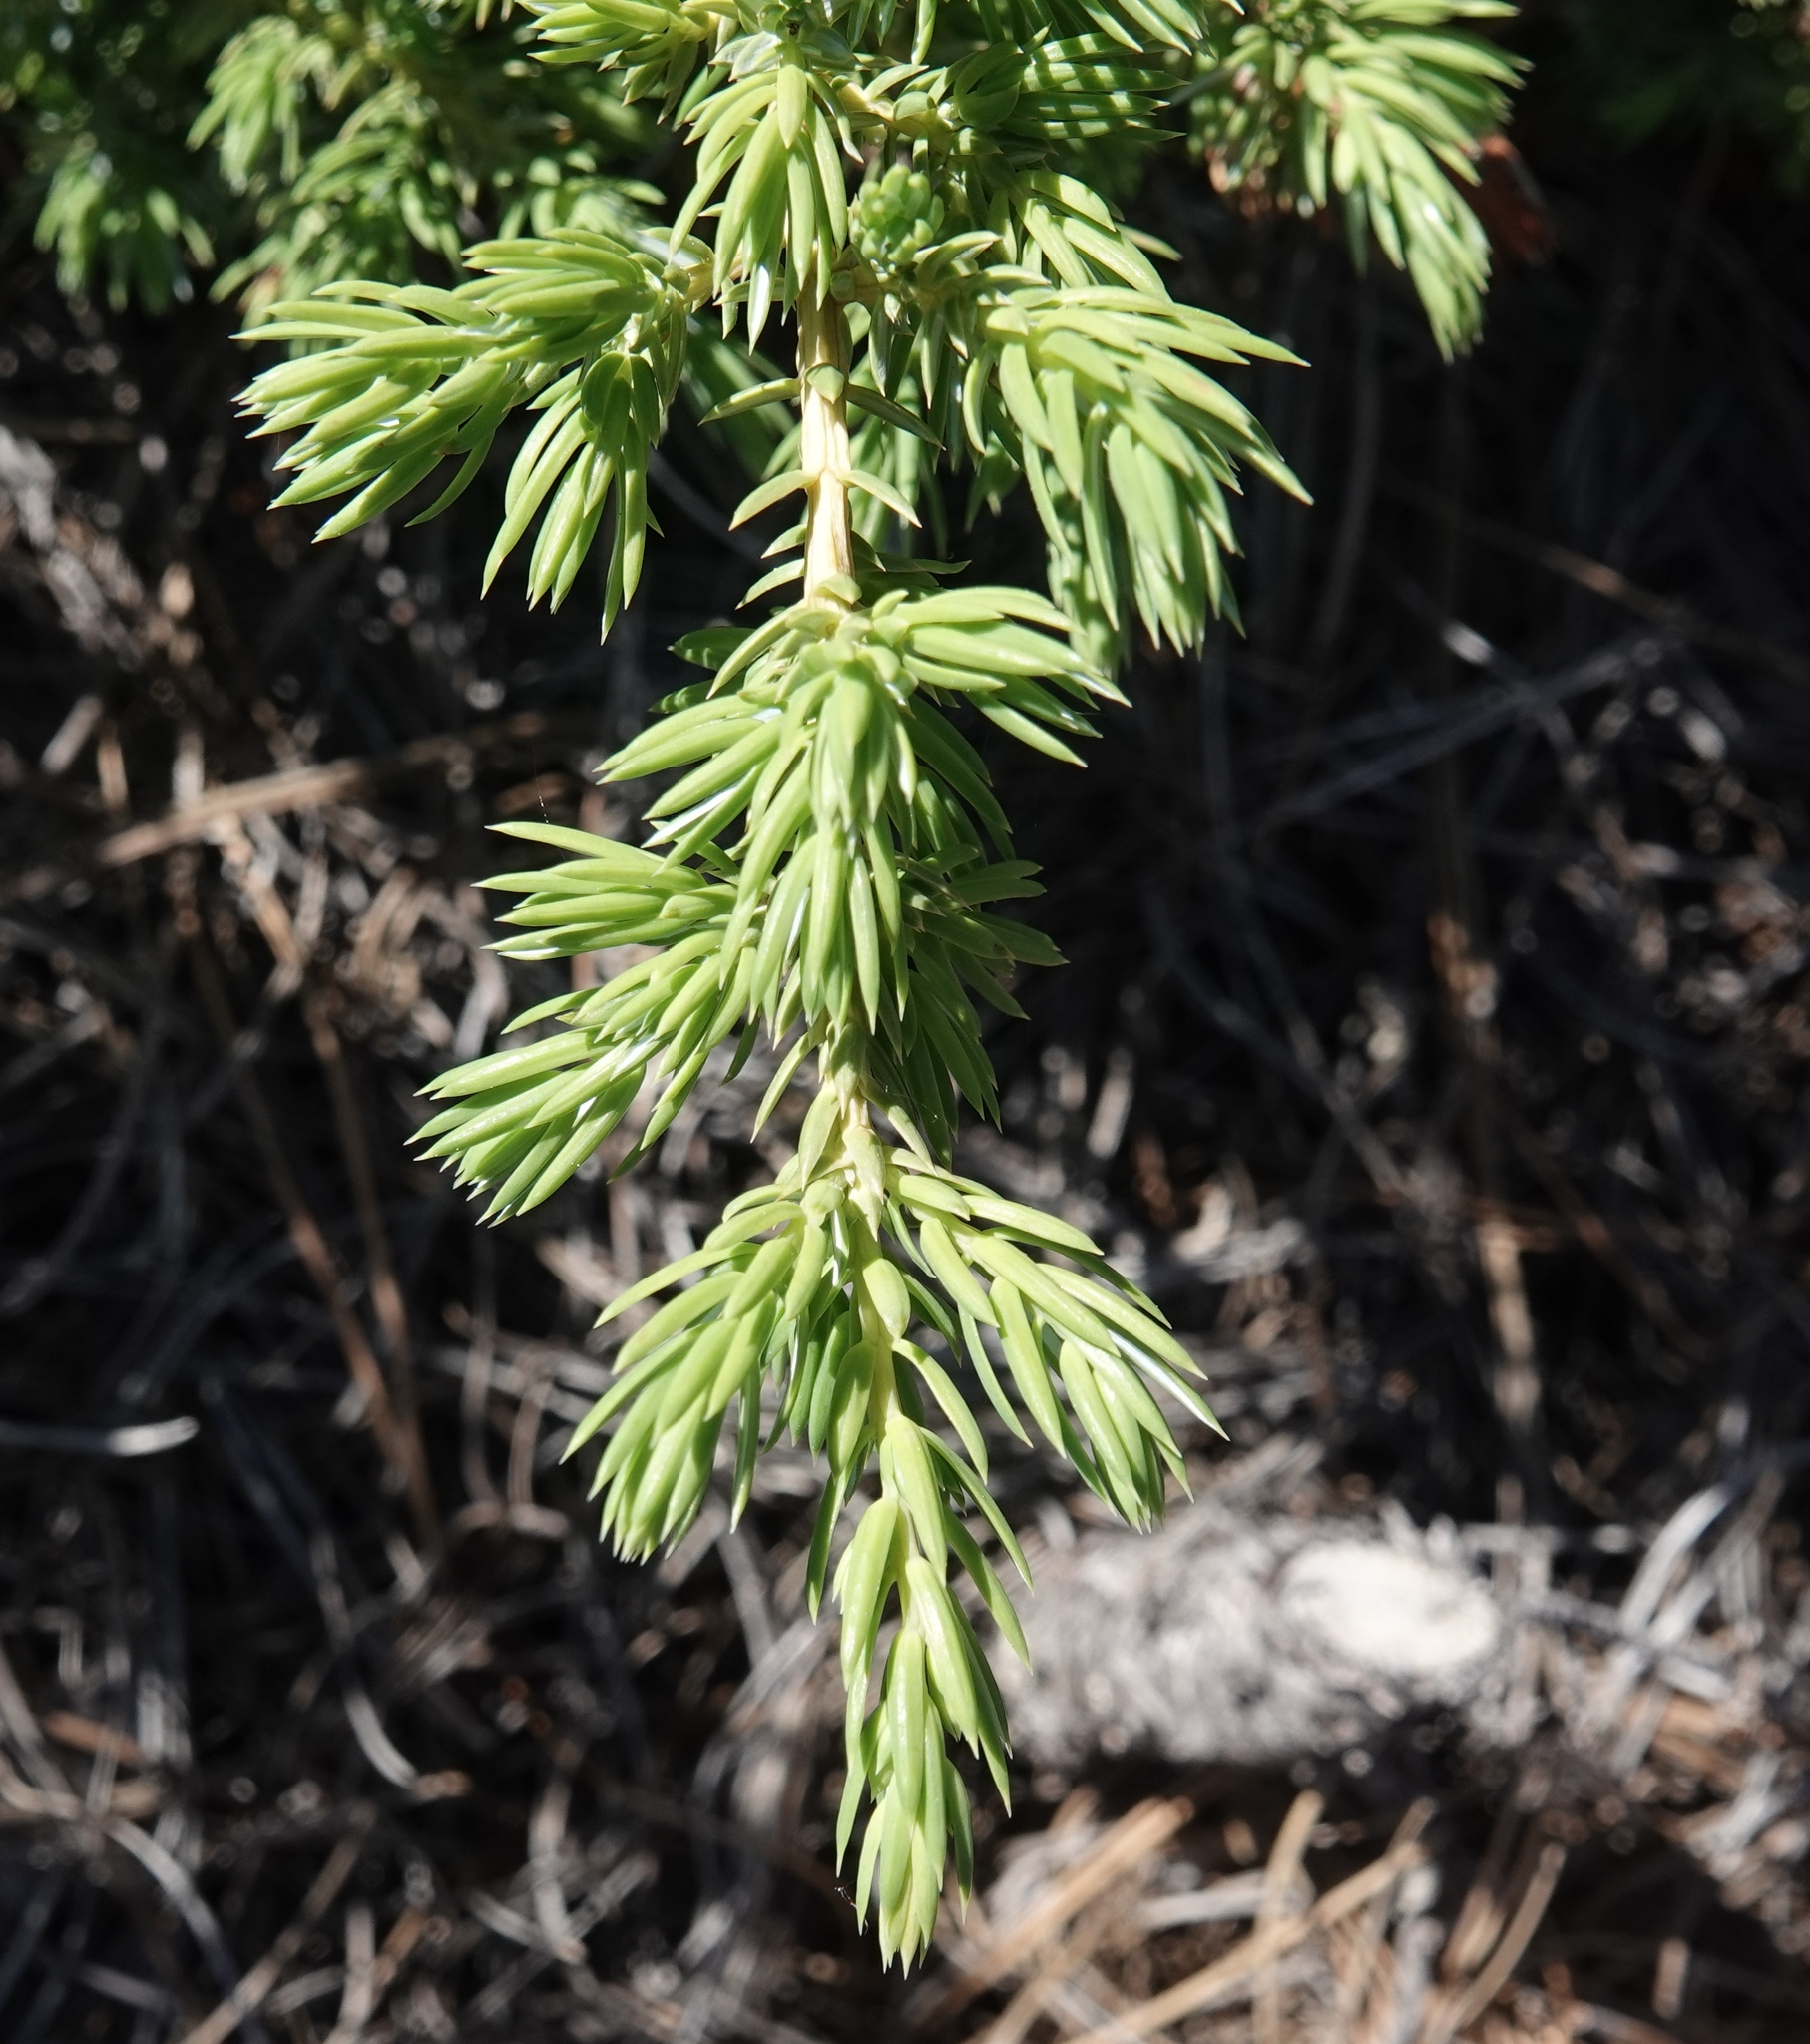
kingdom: Plantae
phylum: Tracheophyta
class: Pinopsida
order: Pinales
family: Cupressaceae
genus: Juniperus
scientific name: Juniperus communis
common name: Common juniper
